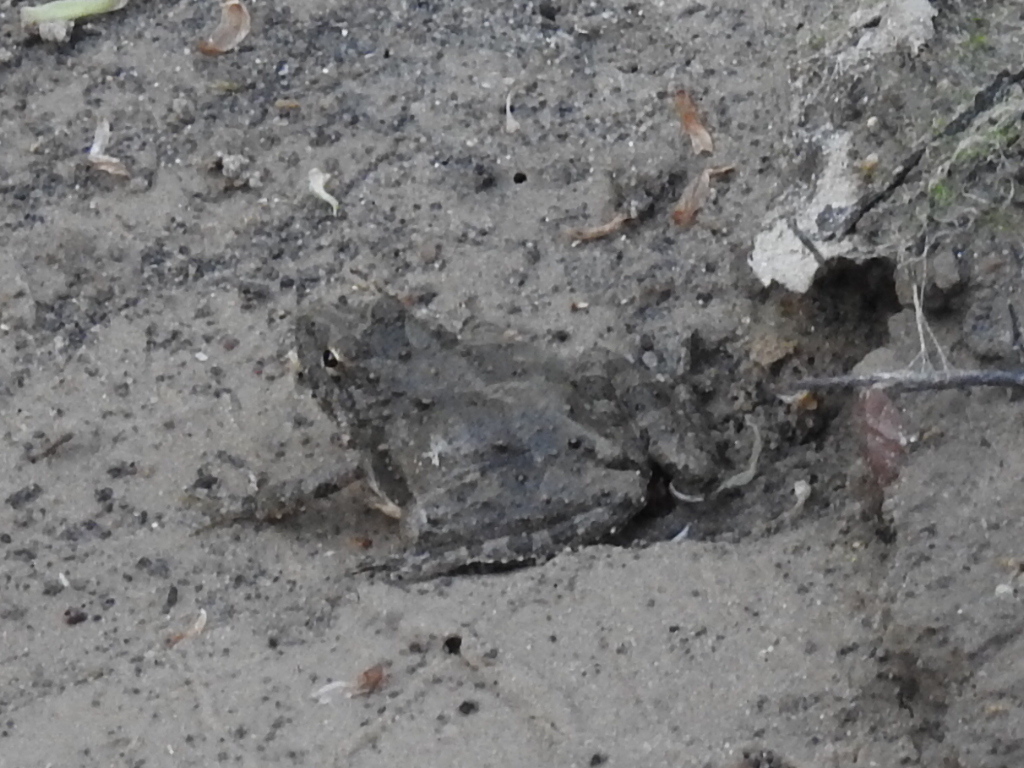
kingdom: Animalia
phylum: Chordata
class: Amphibia
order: Anura
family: Hylidae
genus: Acris
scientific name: Acris blanchardi
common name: Blanchard's cricket frog
